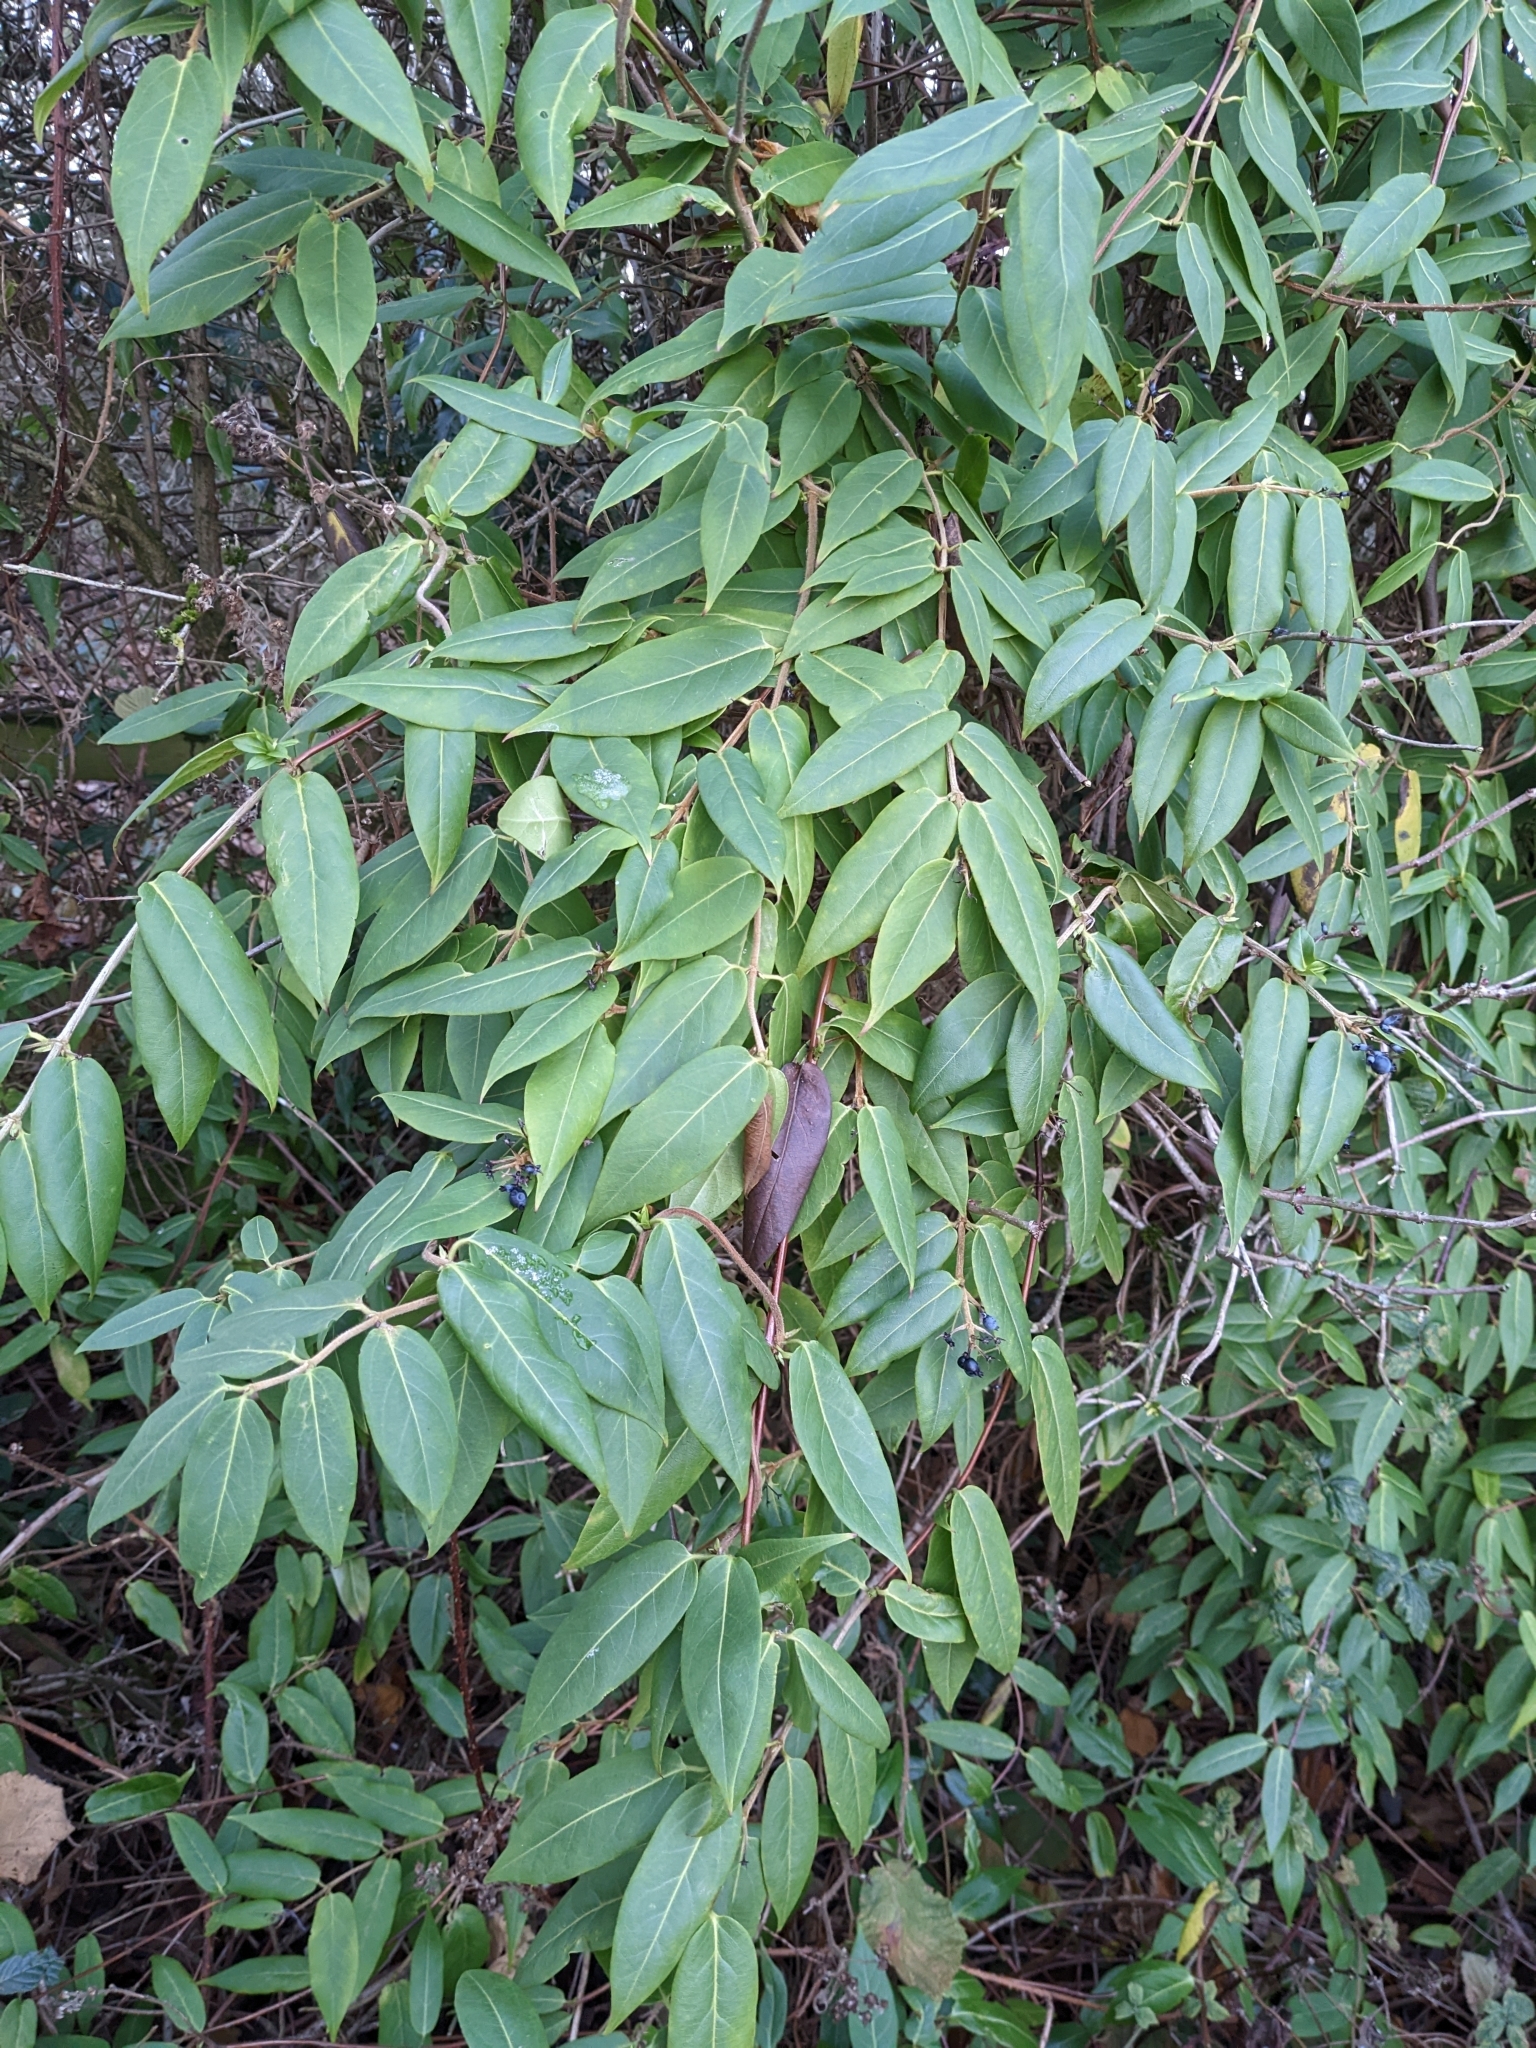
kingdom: Plantae
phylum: Tracheophyta
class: Magnoliopsida
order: Dipsacales
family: Caprifoliaceae
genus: Lonicera
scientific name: Lonicera acuminata
